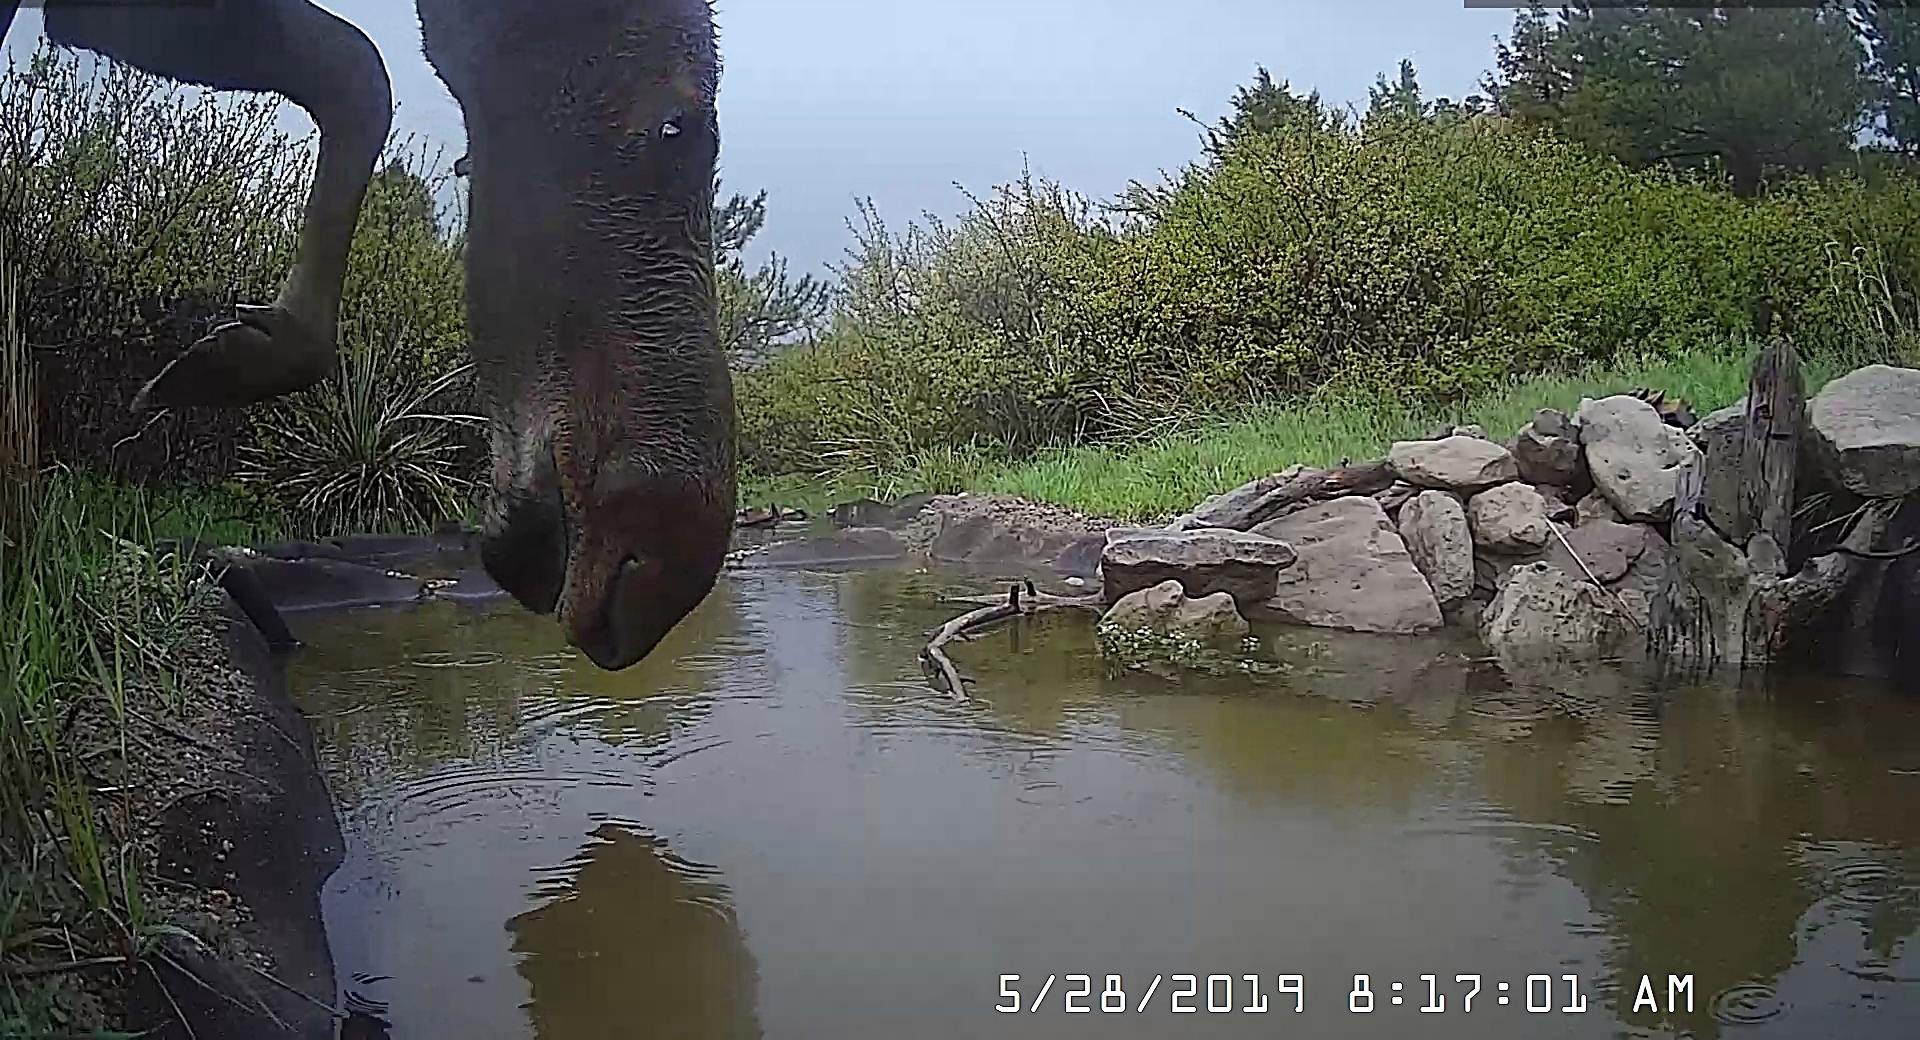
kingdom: Animalia
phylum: Chordata
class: Mammalia
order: Artiodactyla
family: Cervidae
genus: Alces
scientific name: Alces alces
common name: Moose
